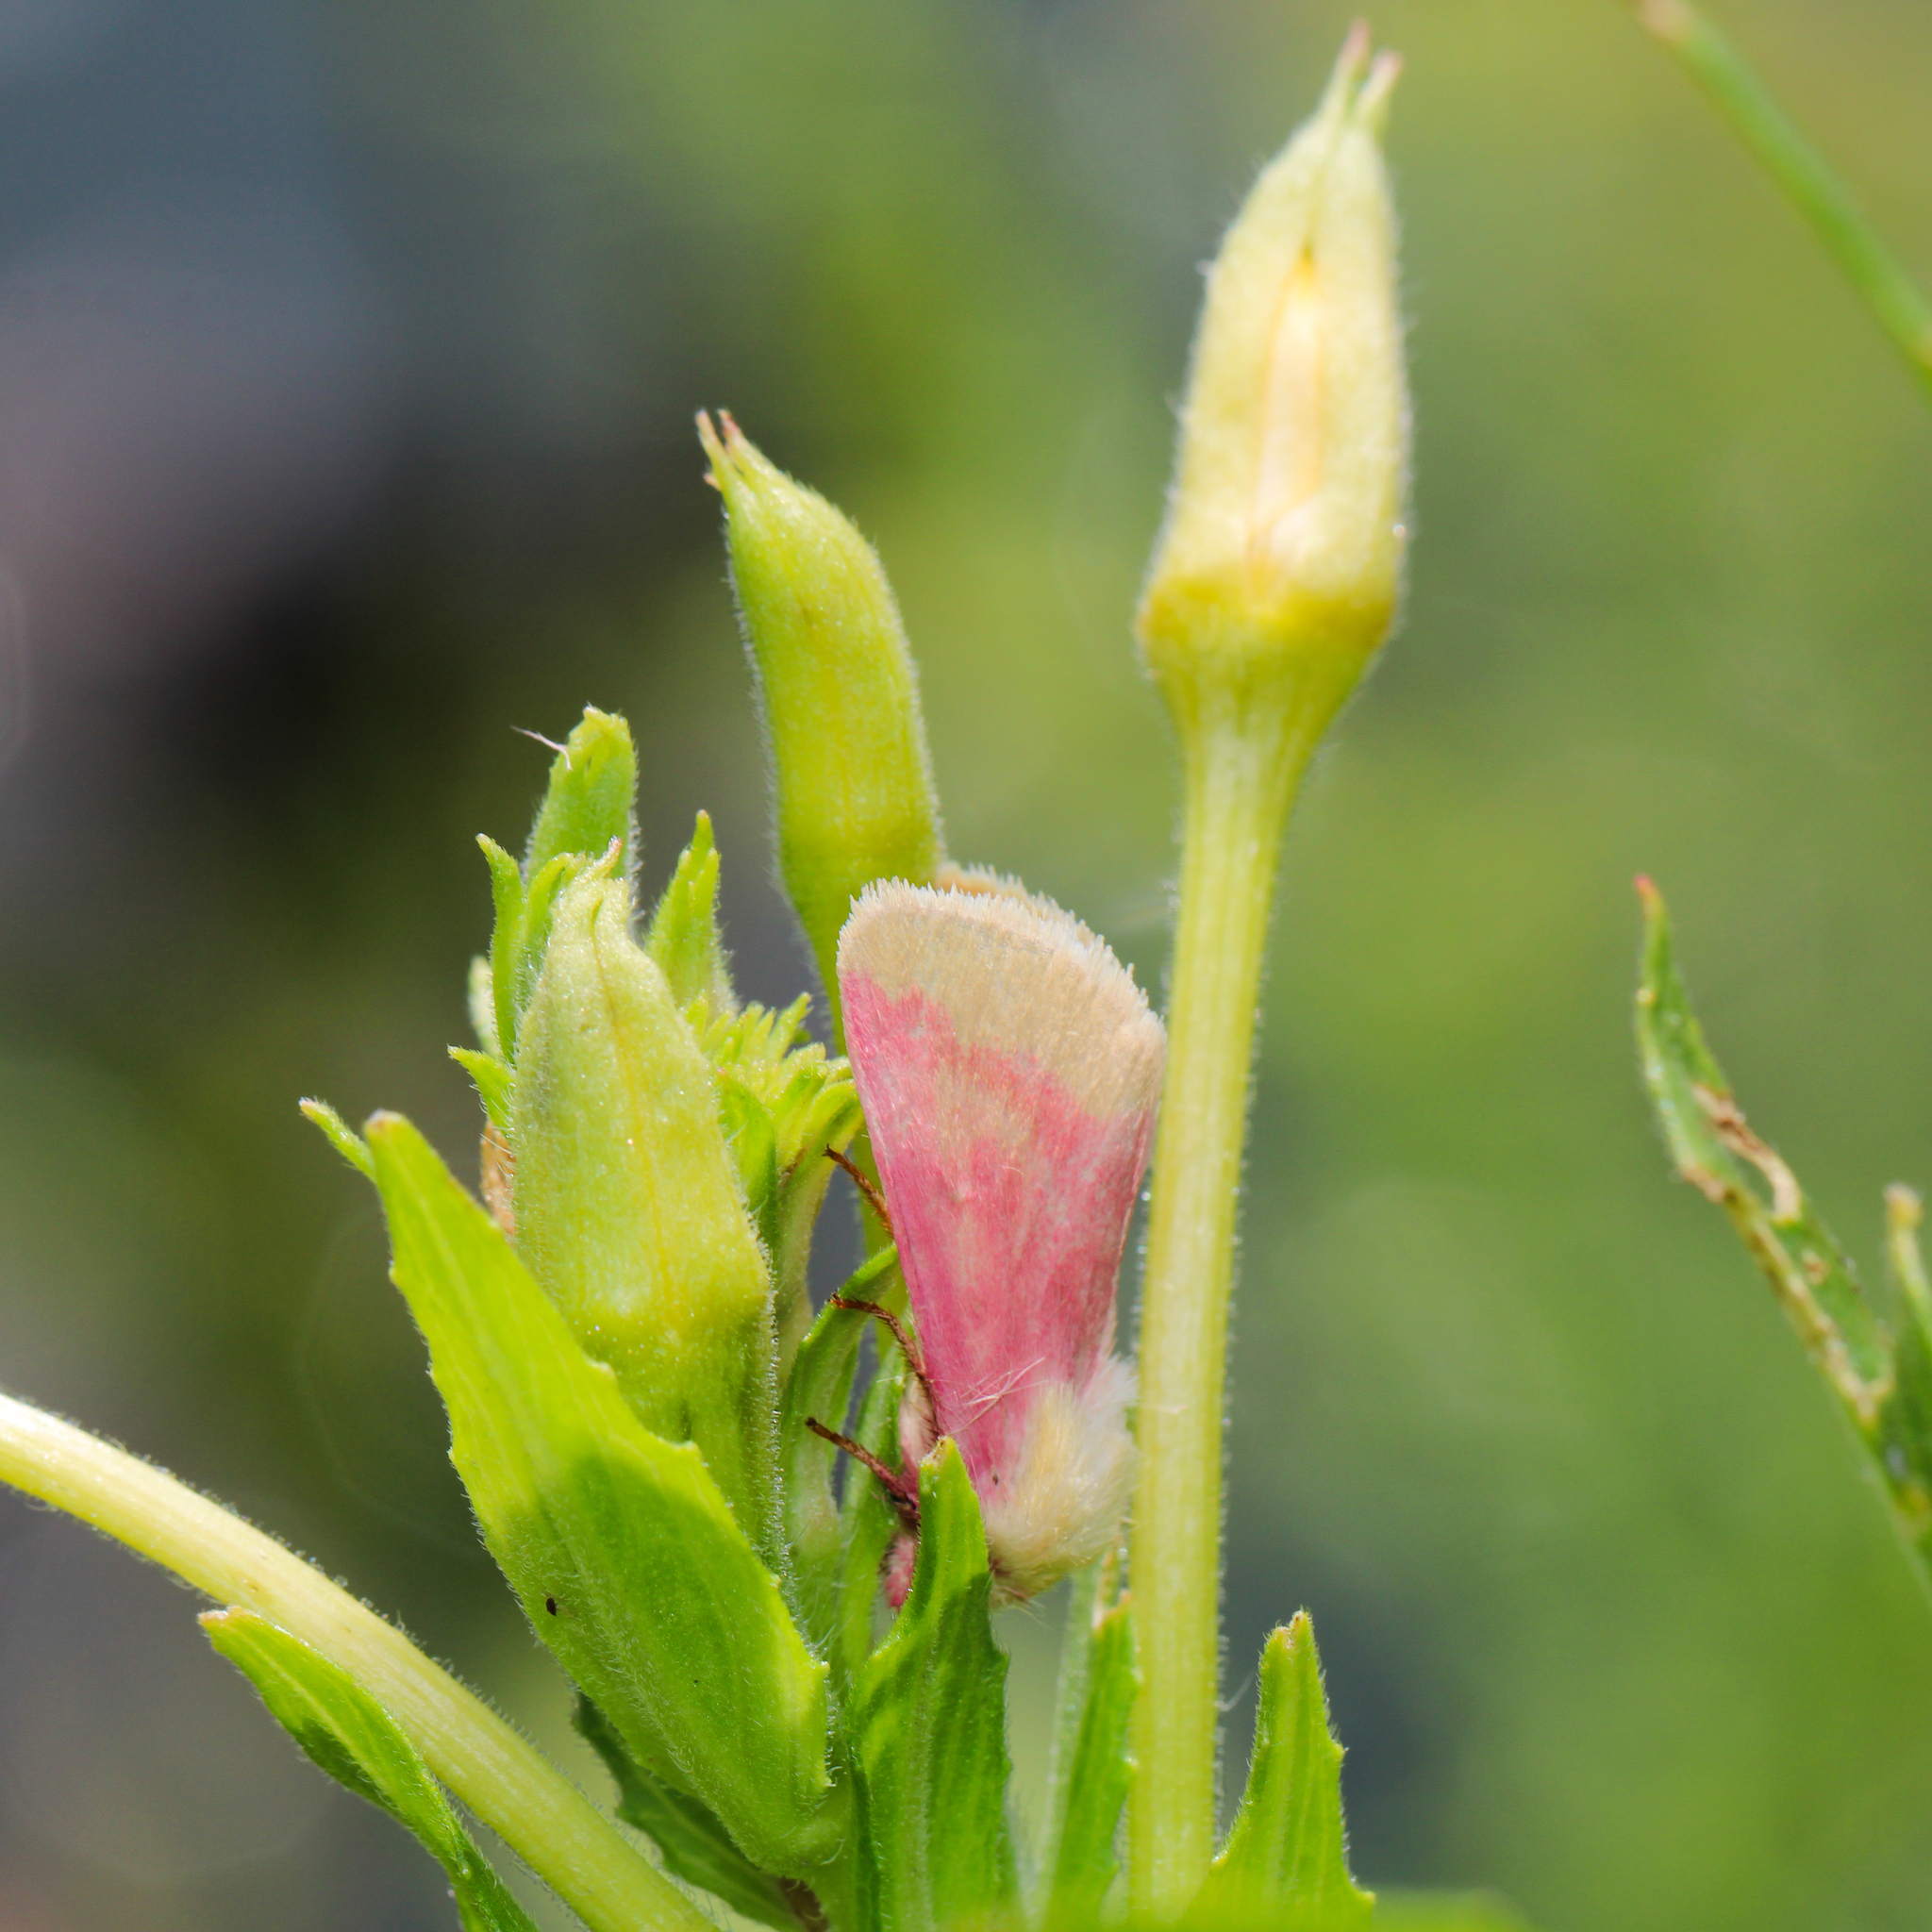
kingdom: Animalia
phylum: Arthropoda
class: Insecta
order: Lepidoptera
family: Noctuidae
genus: Schinia
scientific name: Schinia florida
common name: Primrose moth
